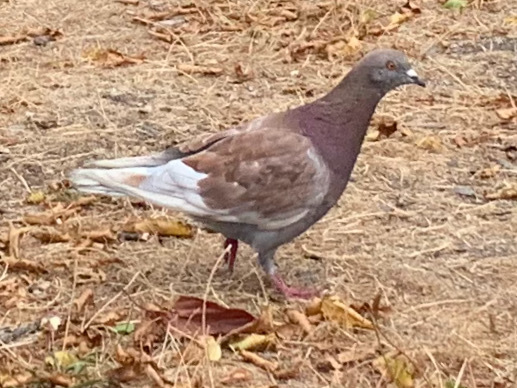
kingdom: Animalia
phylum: Chordata
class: Aves
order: Columbiformes
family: Columbidae
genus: Columba
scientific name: Columba livia
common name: Rock pigeon
